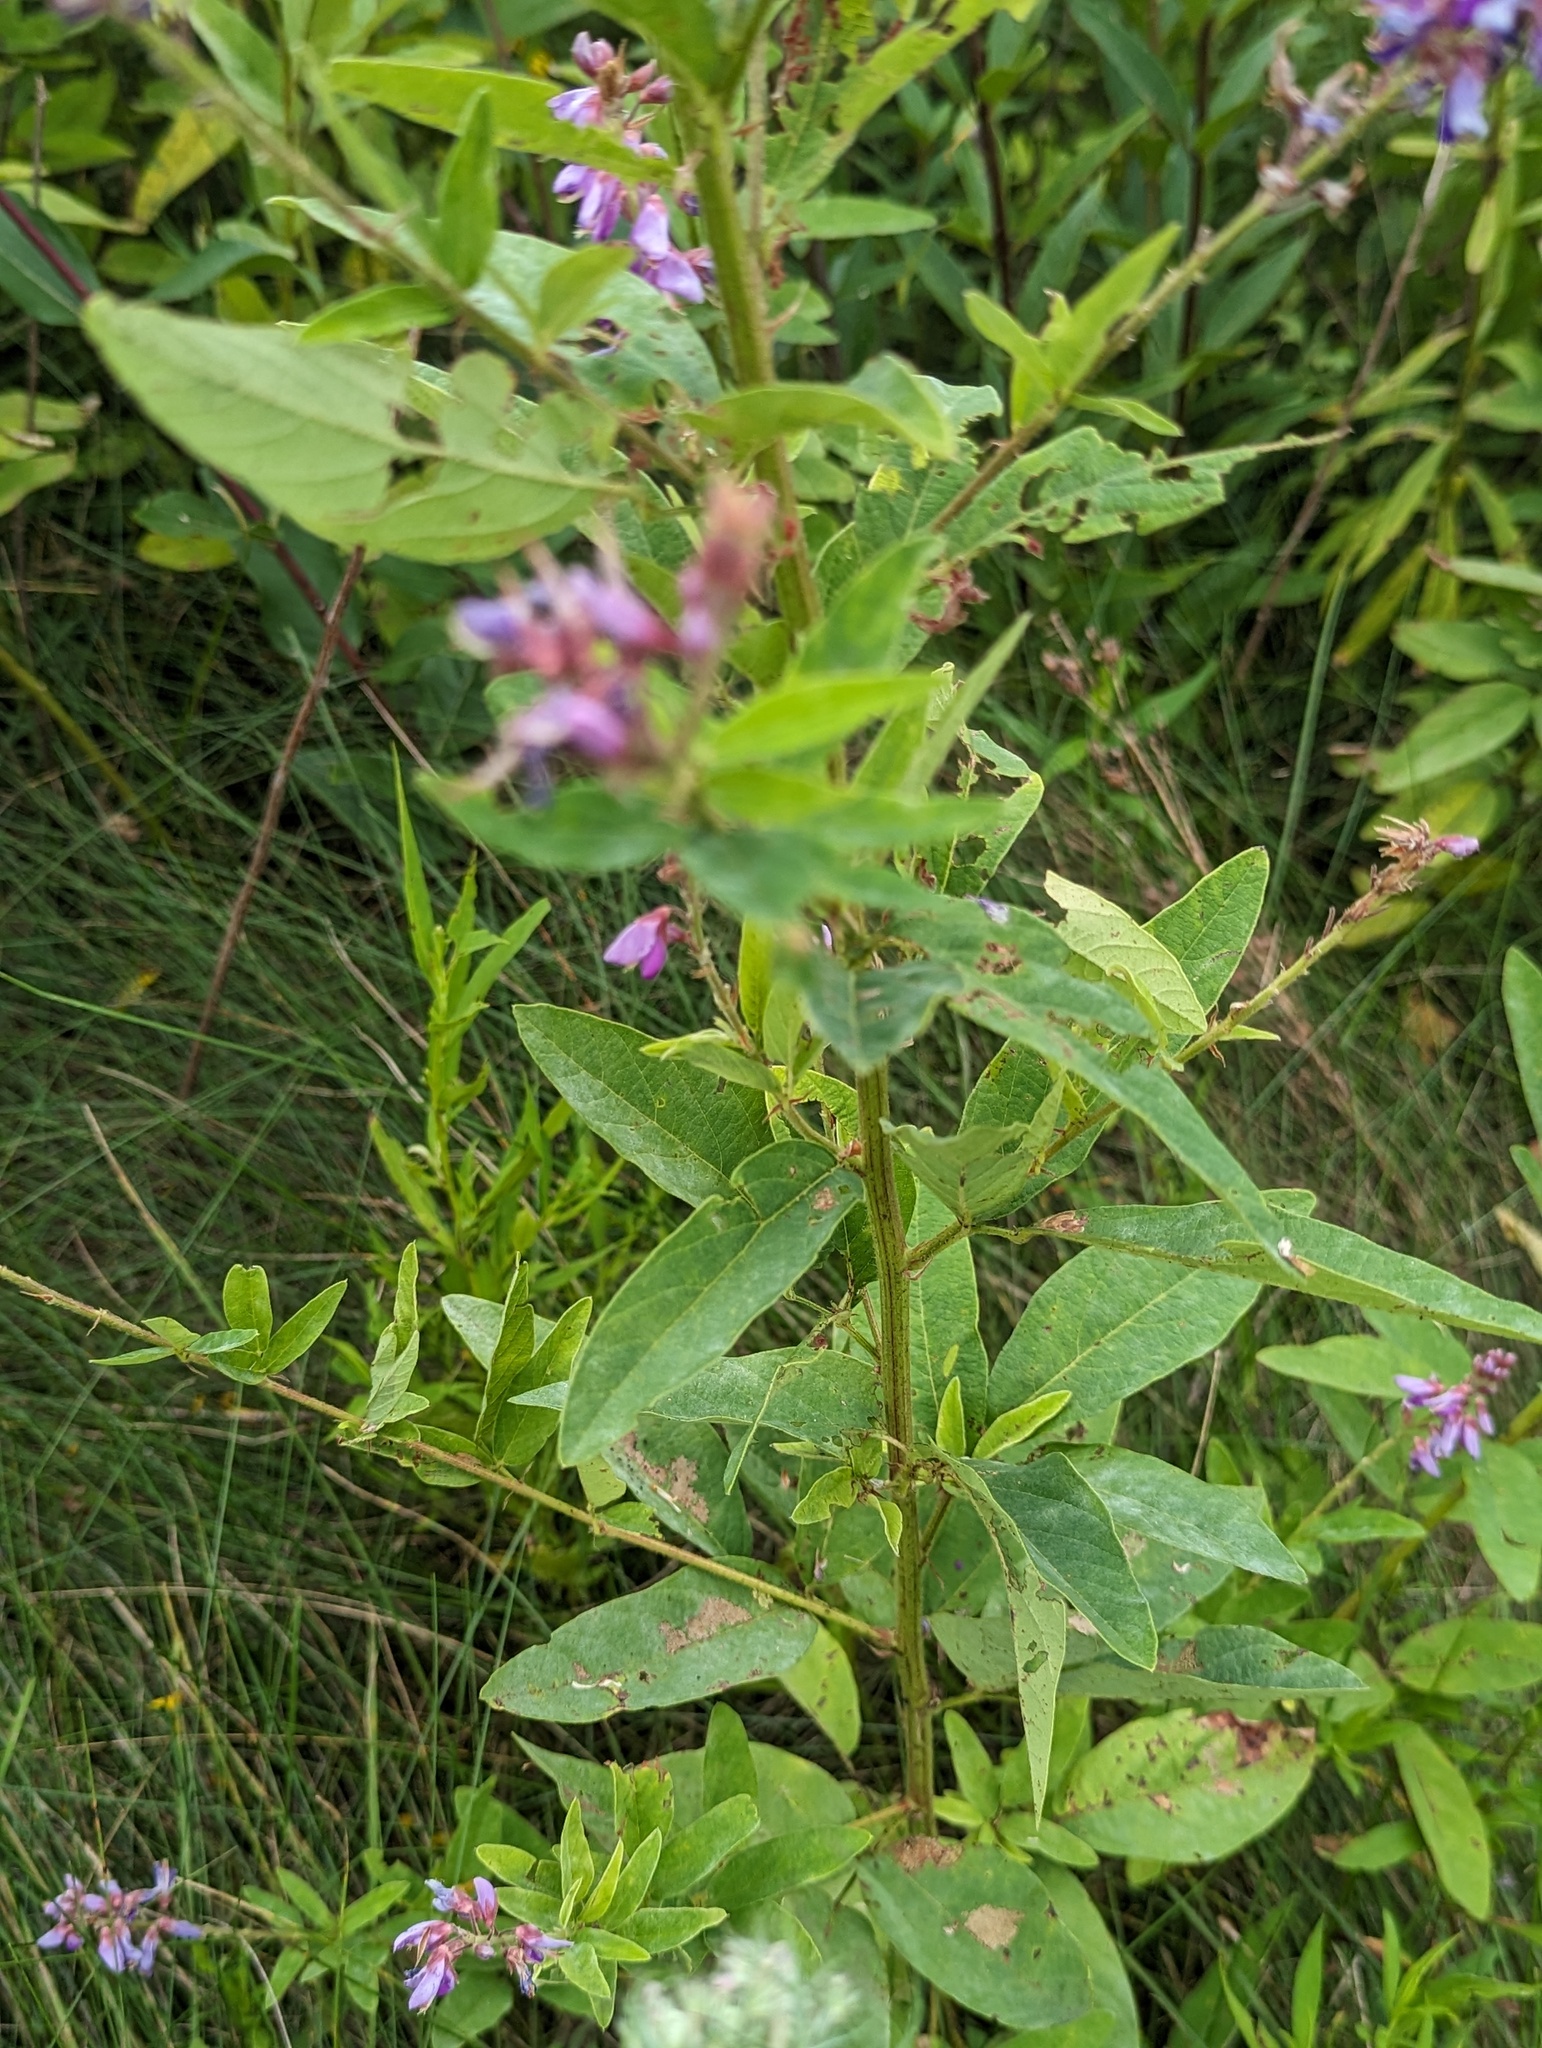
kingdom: Plantae
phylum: Tracheophyta
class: Magnoliopsida
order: Fabales
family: Fabaceae
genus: Desmodium
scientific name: Desmodium canadense
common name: Canada tick-trefoil
